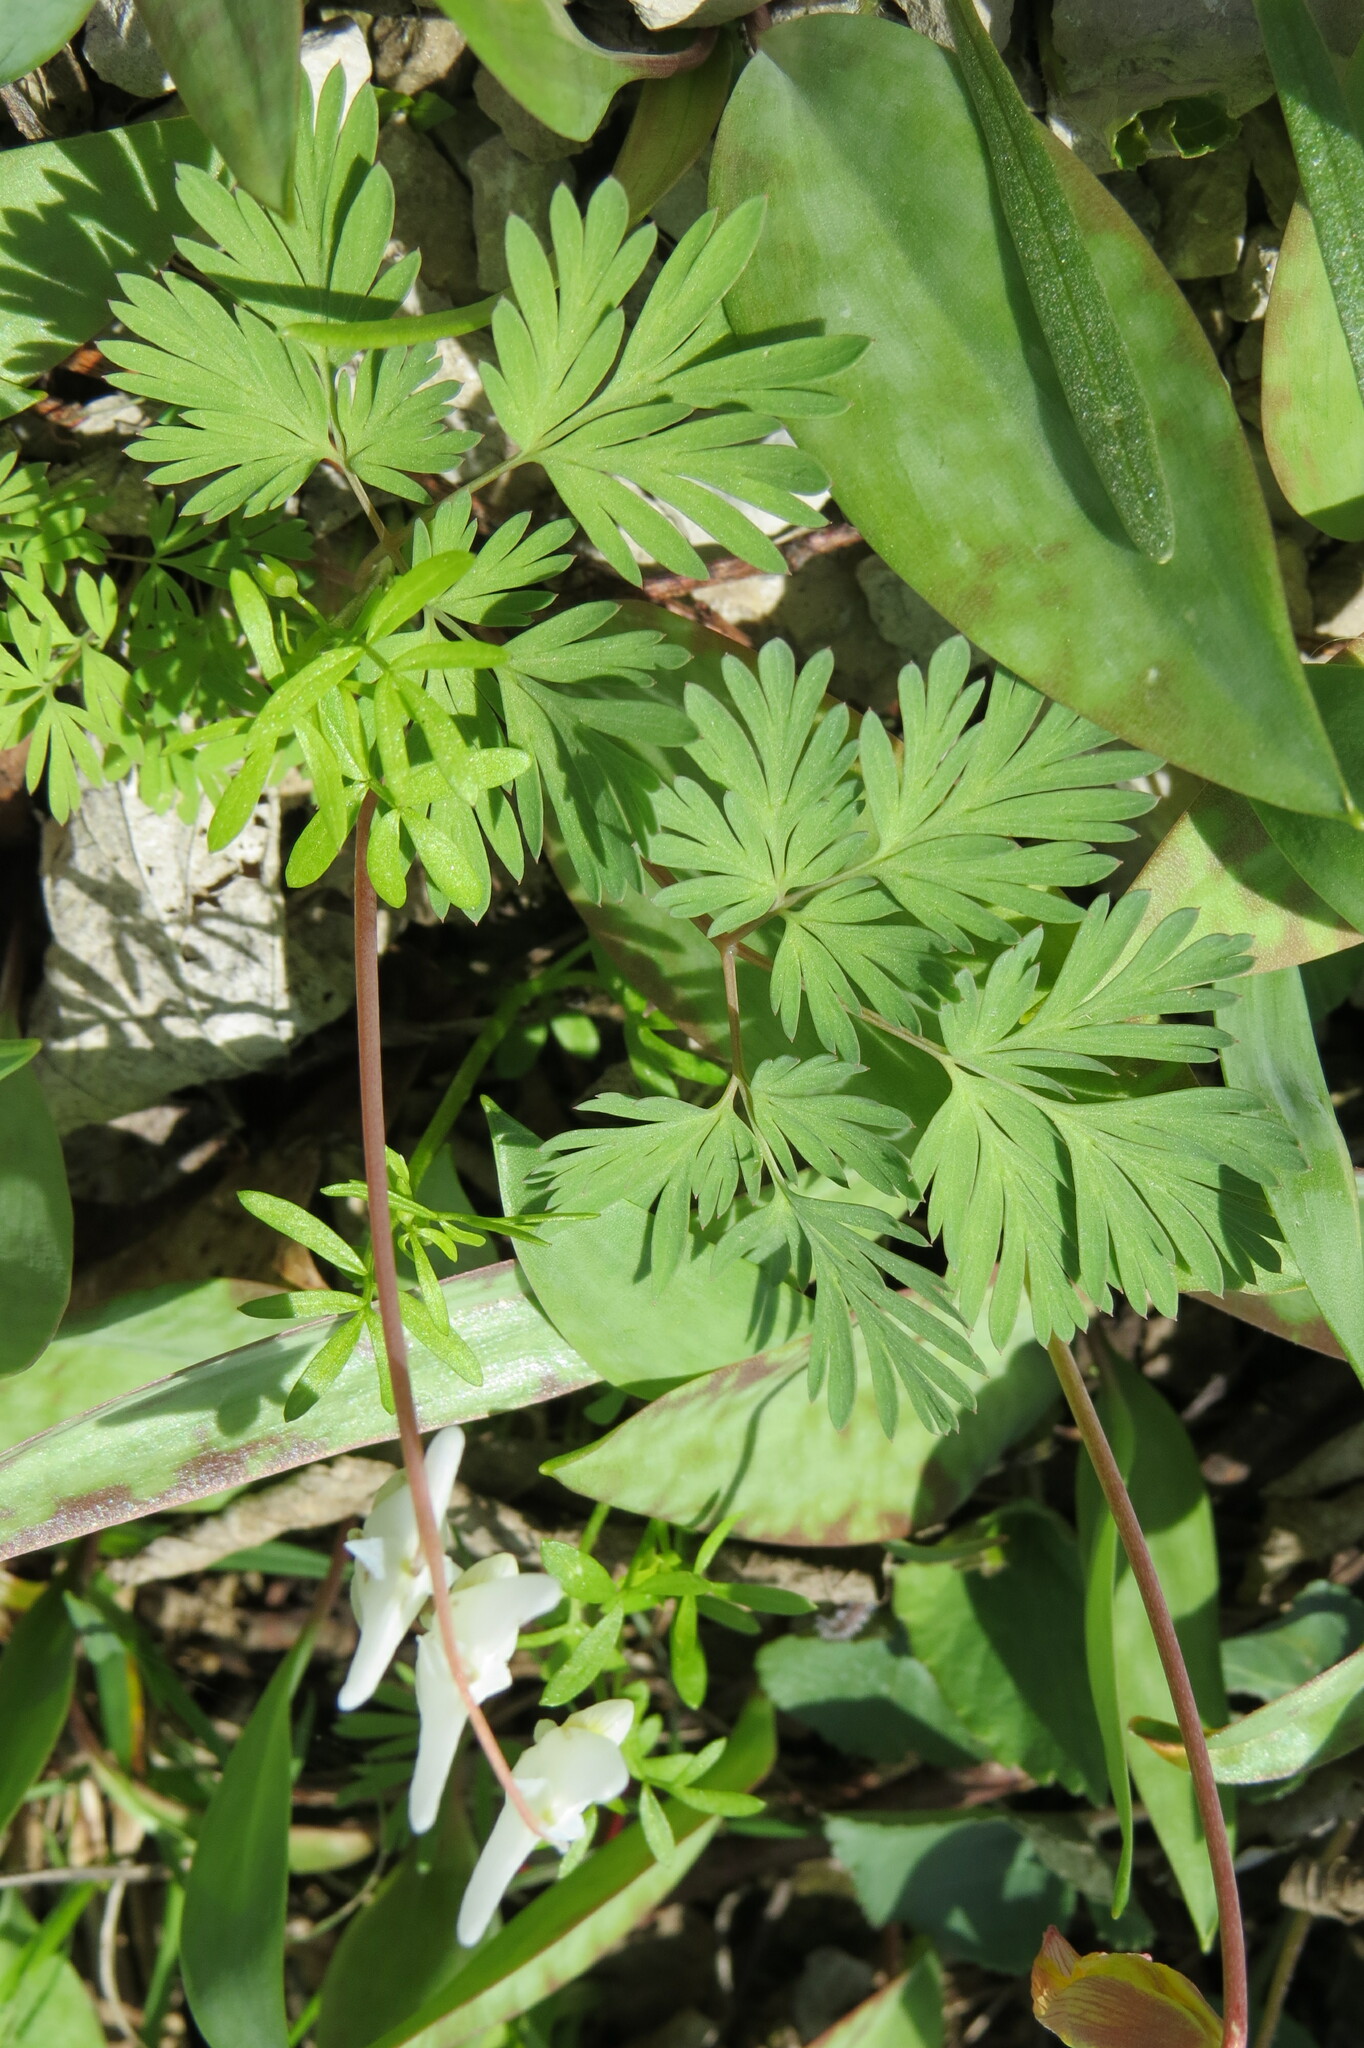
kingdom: Plantae
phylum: Tracheophyta
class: Magnoliopsida
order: Ranunculales
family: Papaveraceae
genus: Dicentra
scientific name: Dicentra cucullaria
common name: Dutchman's breeches
